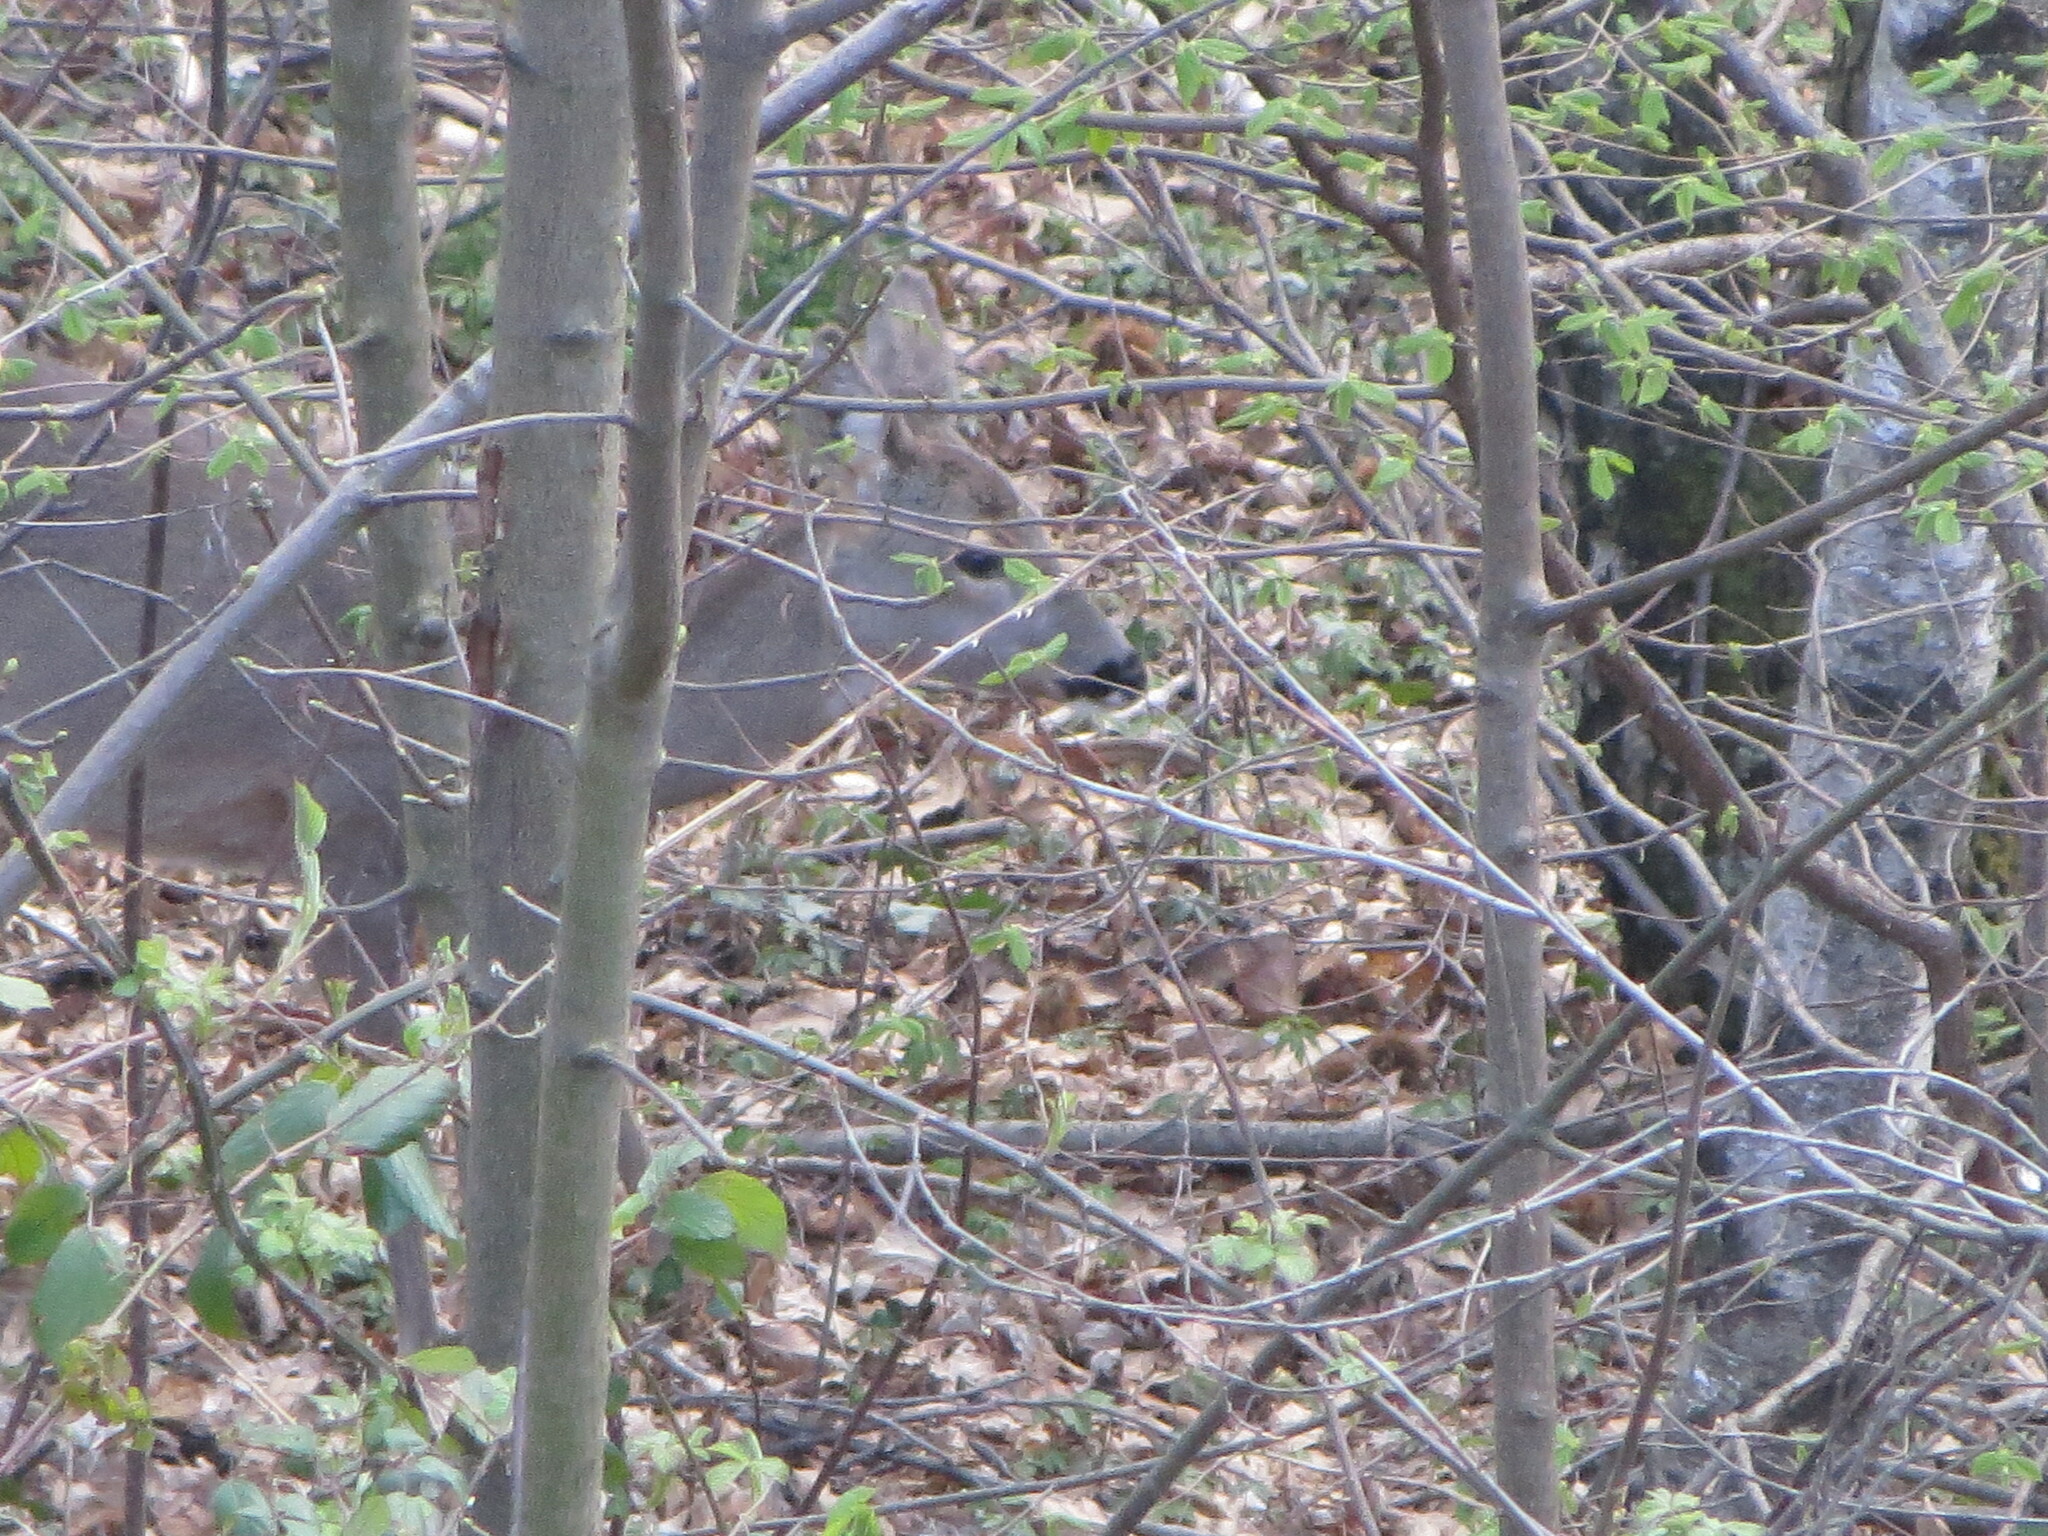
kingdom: Animalia
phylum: Chordata
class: Mammalia
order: Artiodactyla
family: Cervidae
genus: Capreolus
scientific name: Capreolus capreolus
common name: Western roe deer
